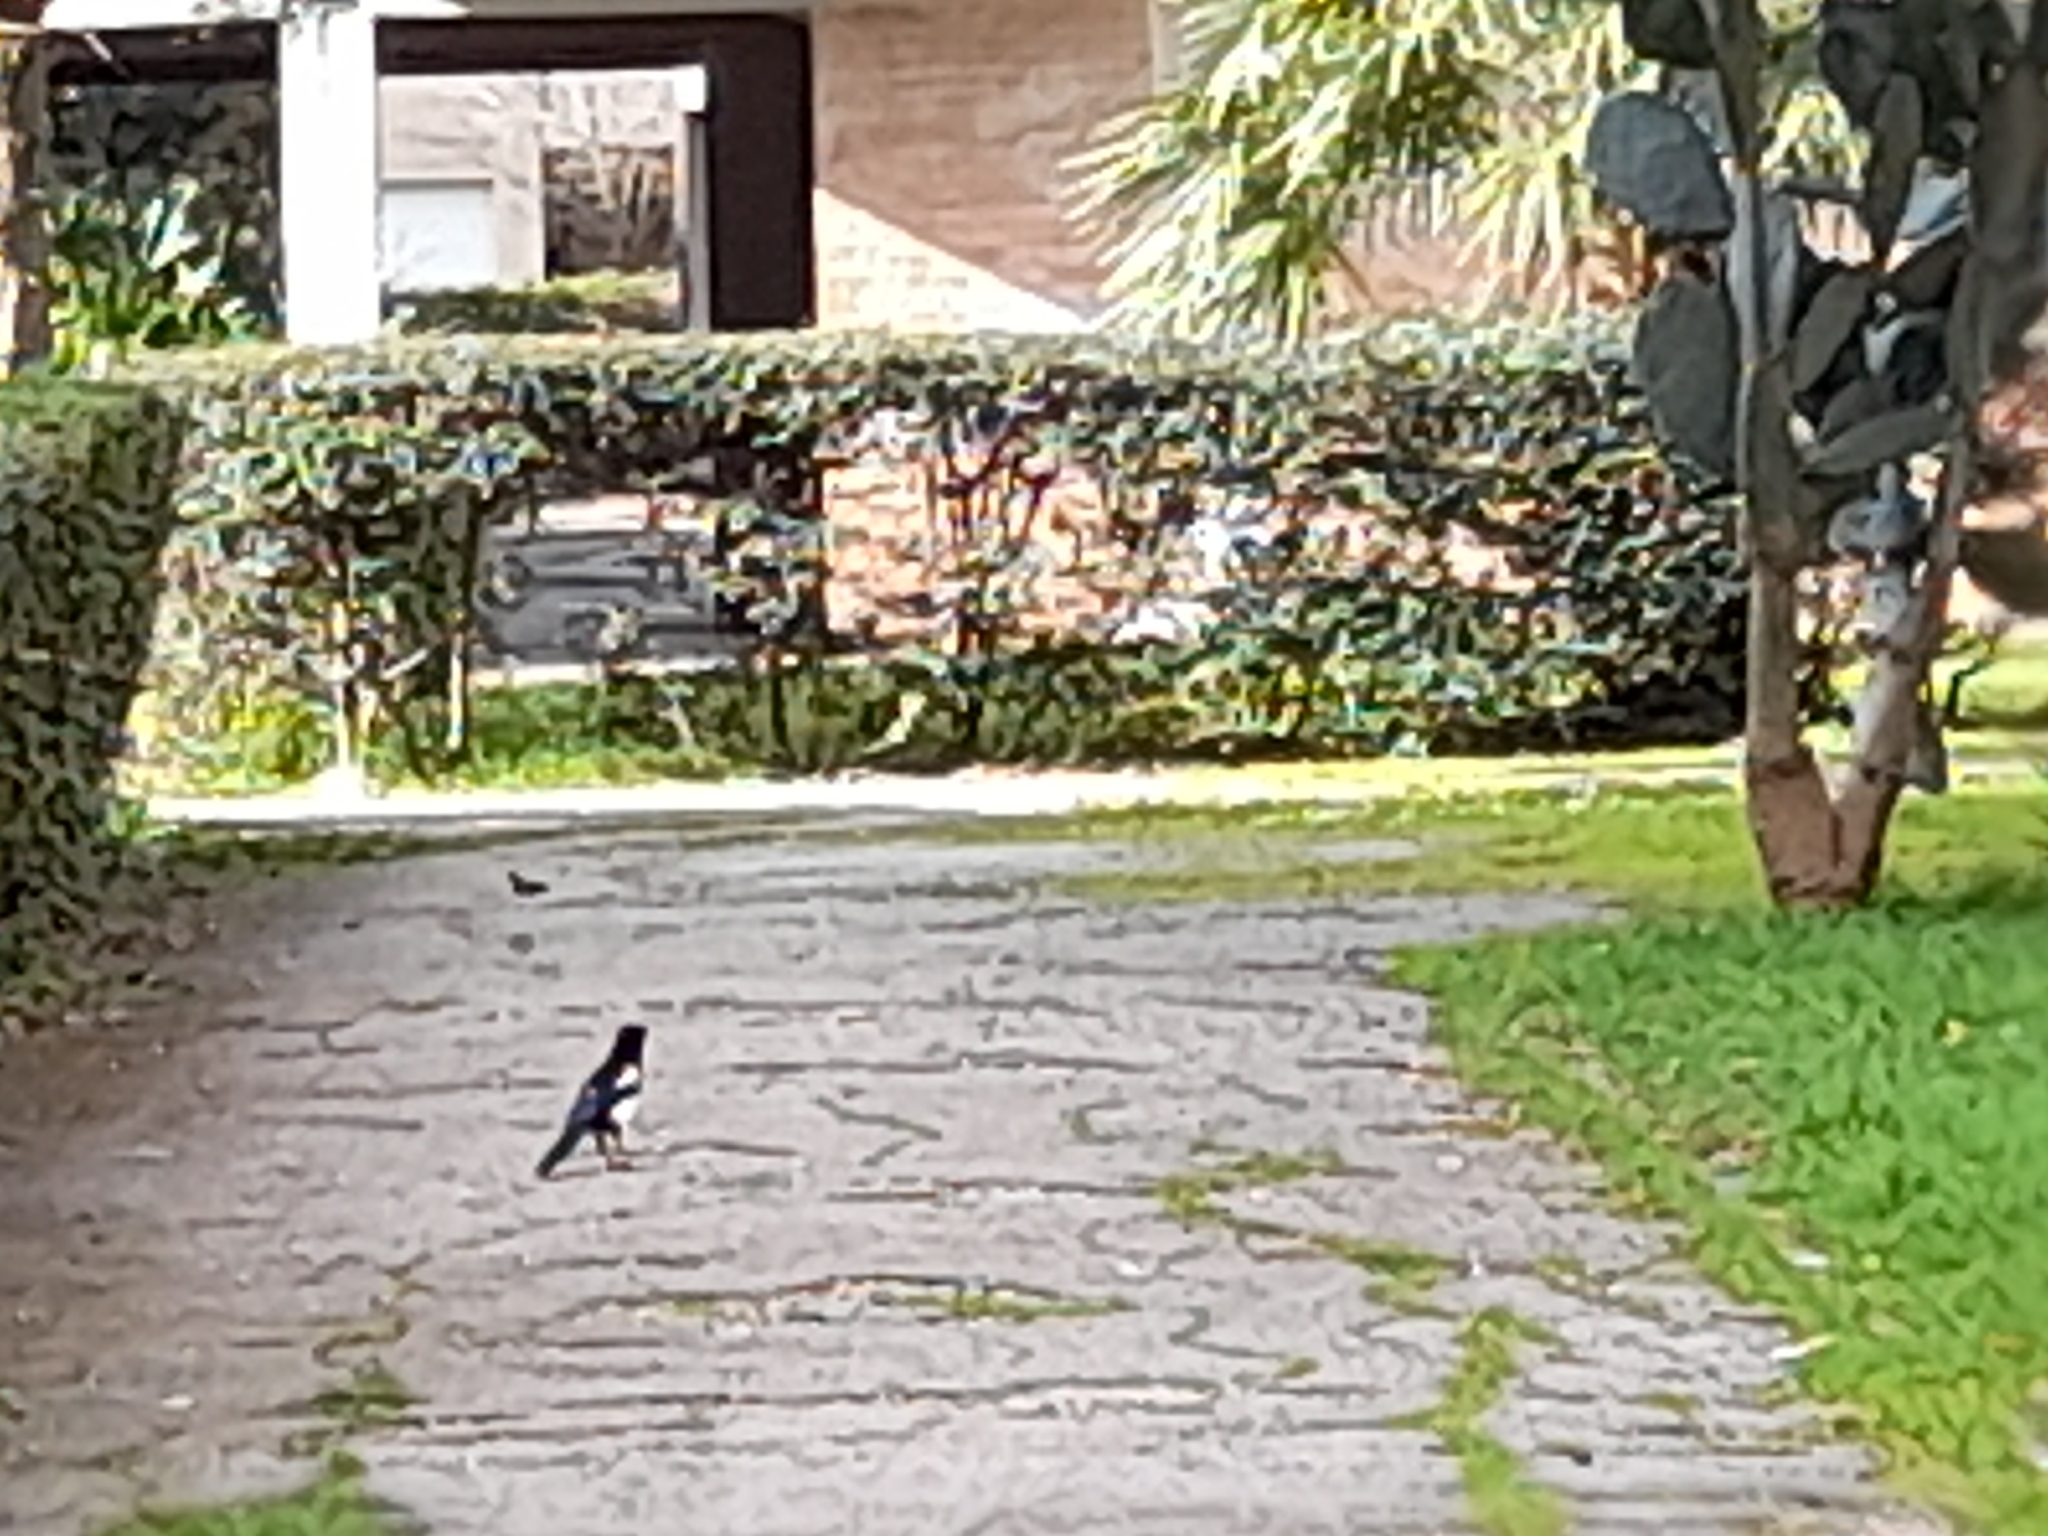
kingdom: Animalia
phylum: Chordata
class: Aves
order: Passeriformes
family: Corvidae
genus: Pica
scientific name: Pica pica
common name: Eurasian magpie
